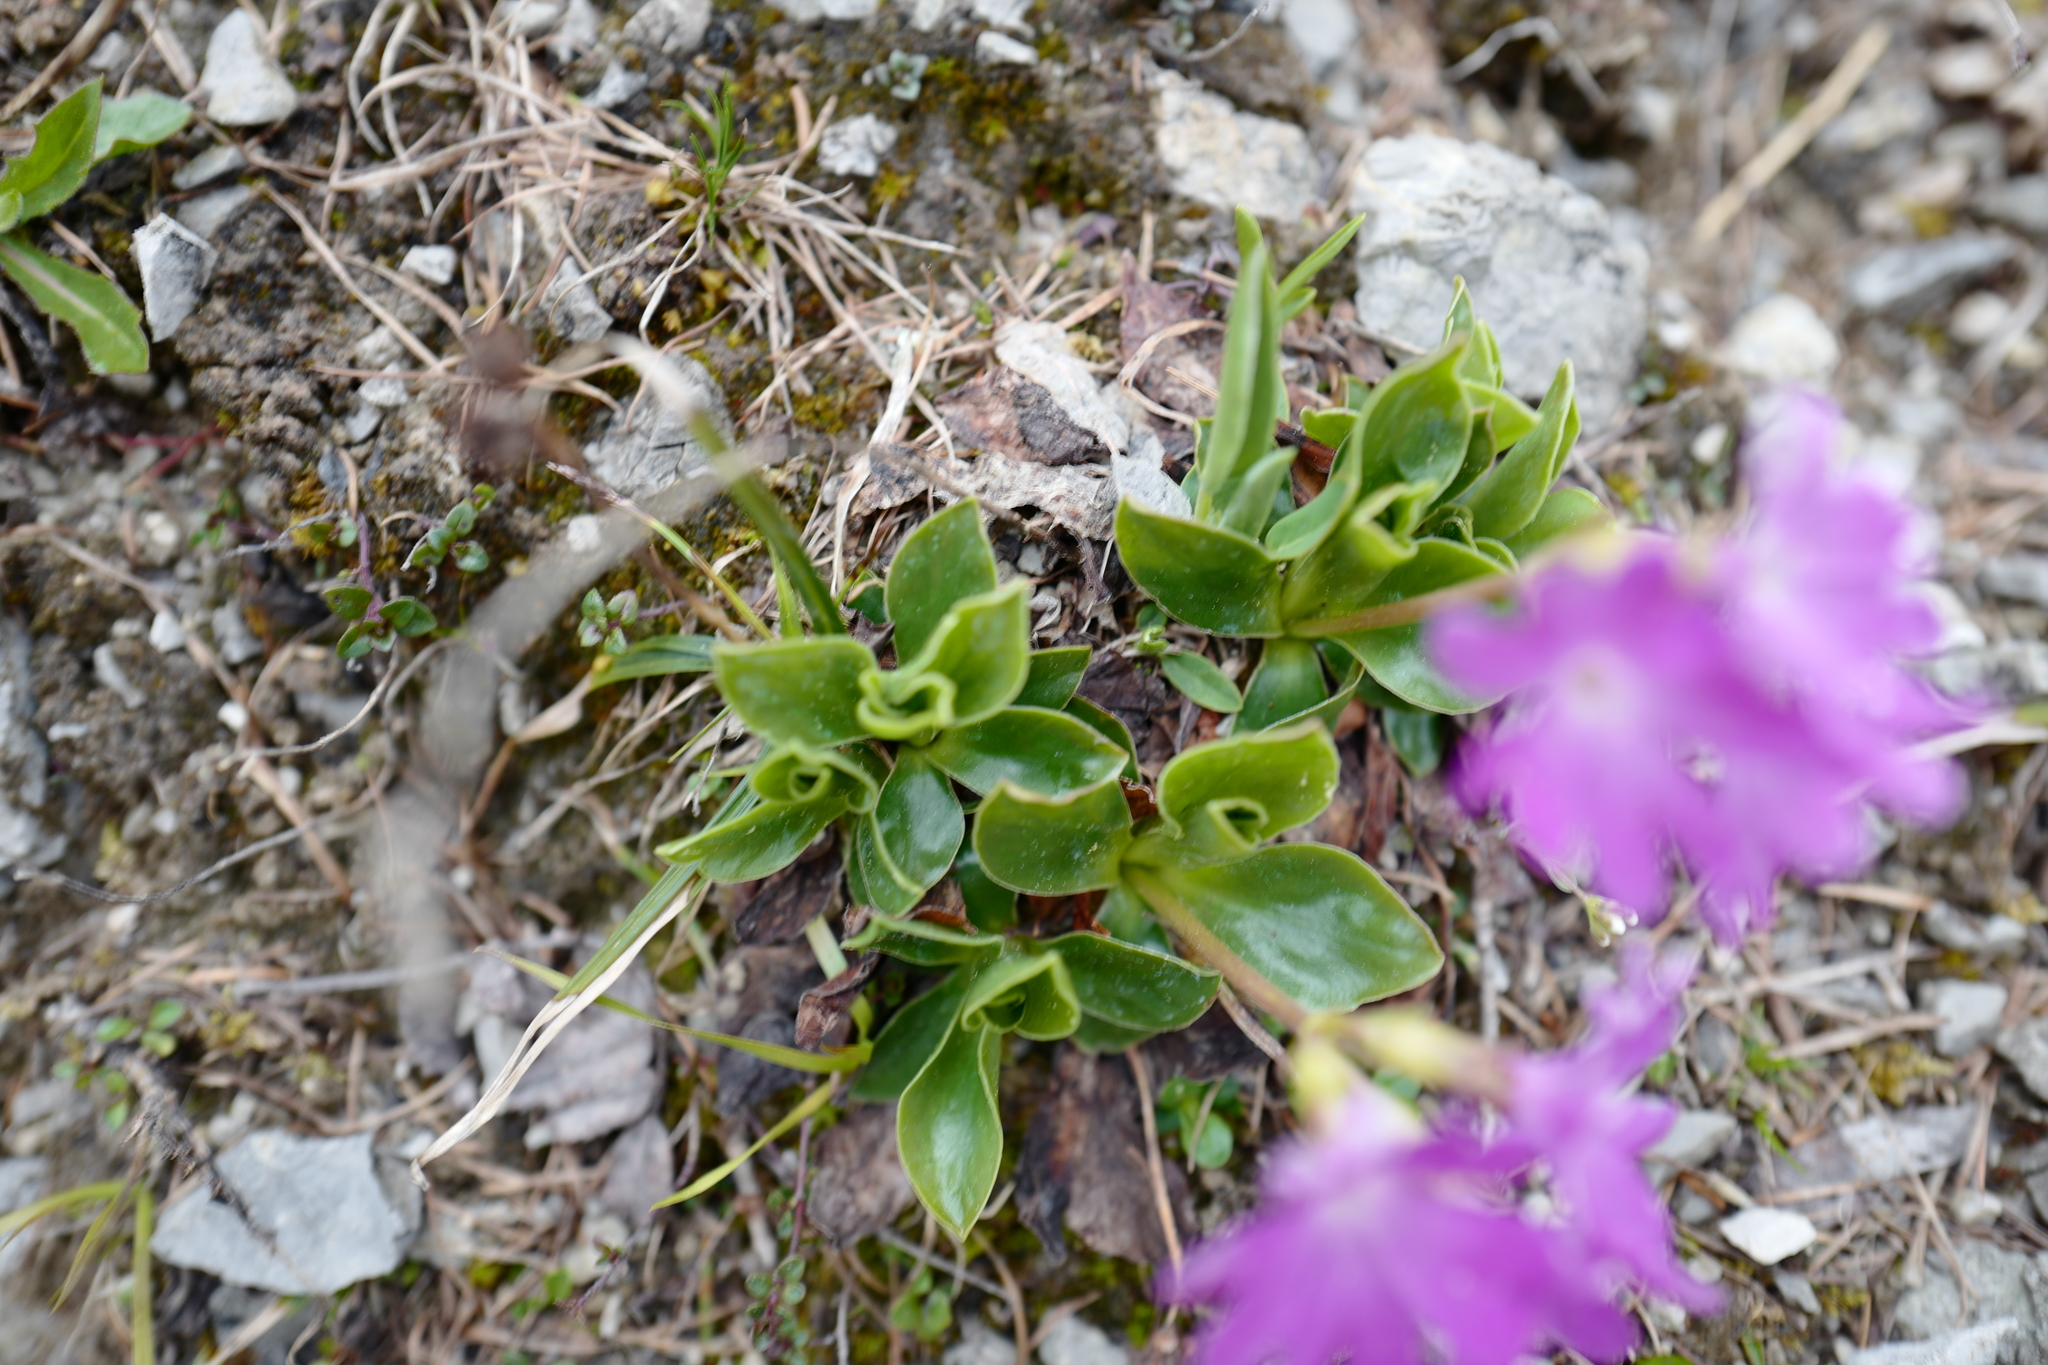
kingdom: Plantae
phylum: Tracheophyta
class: Magnoliopsida
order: Ericales
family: Primulaceae
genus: Primula
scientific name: Primula clusiana
